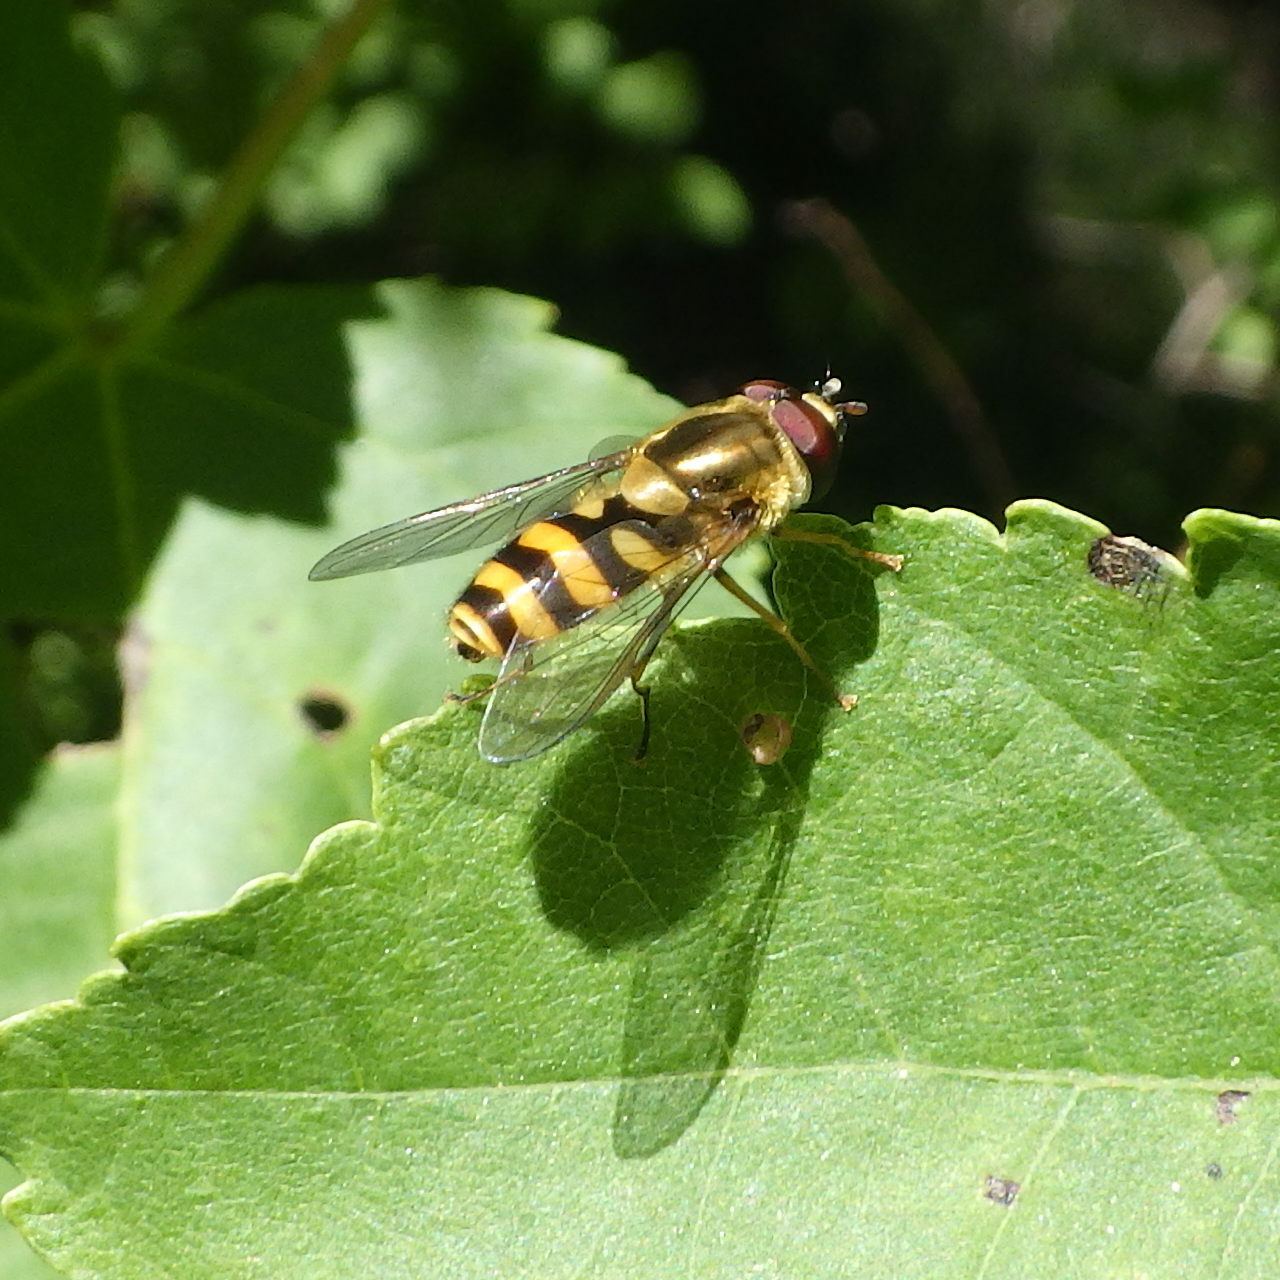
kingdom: Animalia
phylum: Arthropoda
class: Insecta
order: Diptera
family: Syrphidae
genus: Syrphus
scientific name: Syrphus
